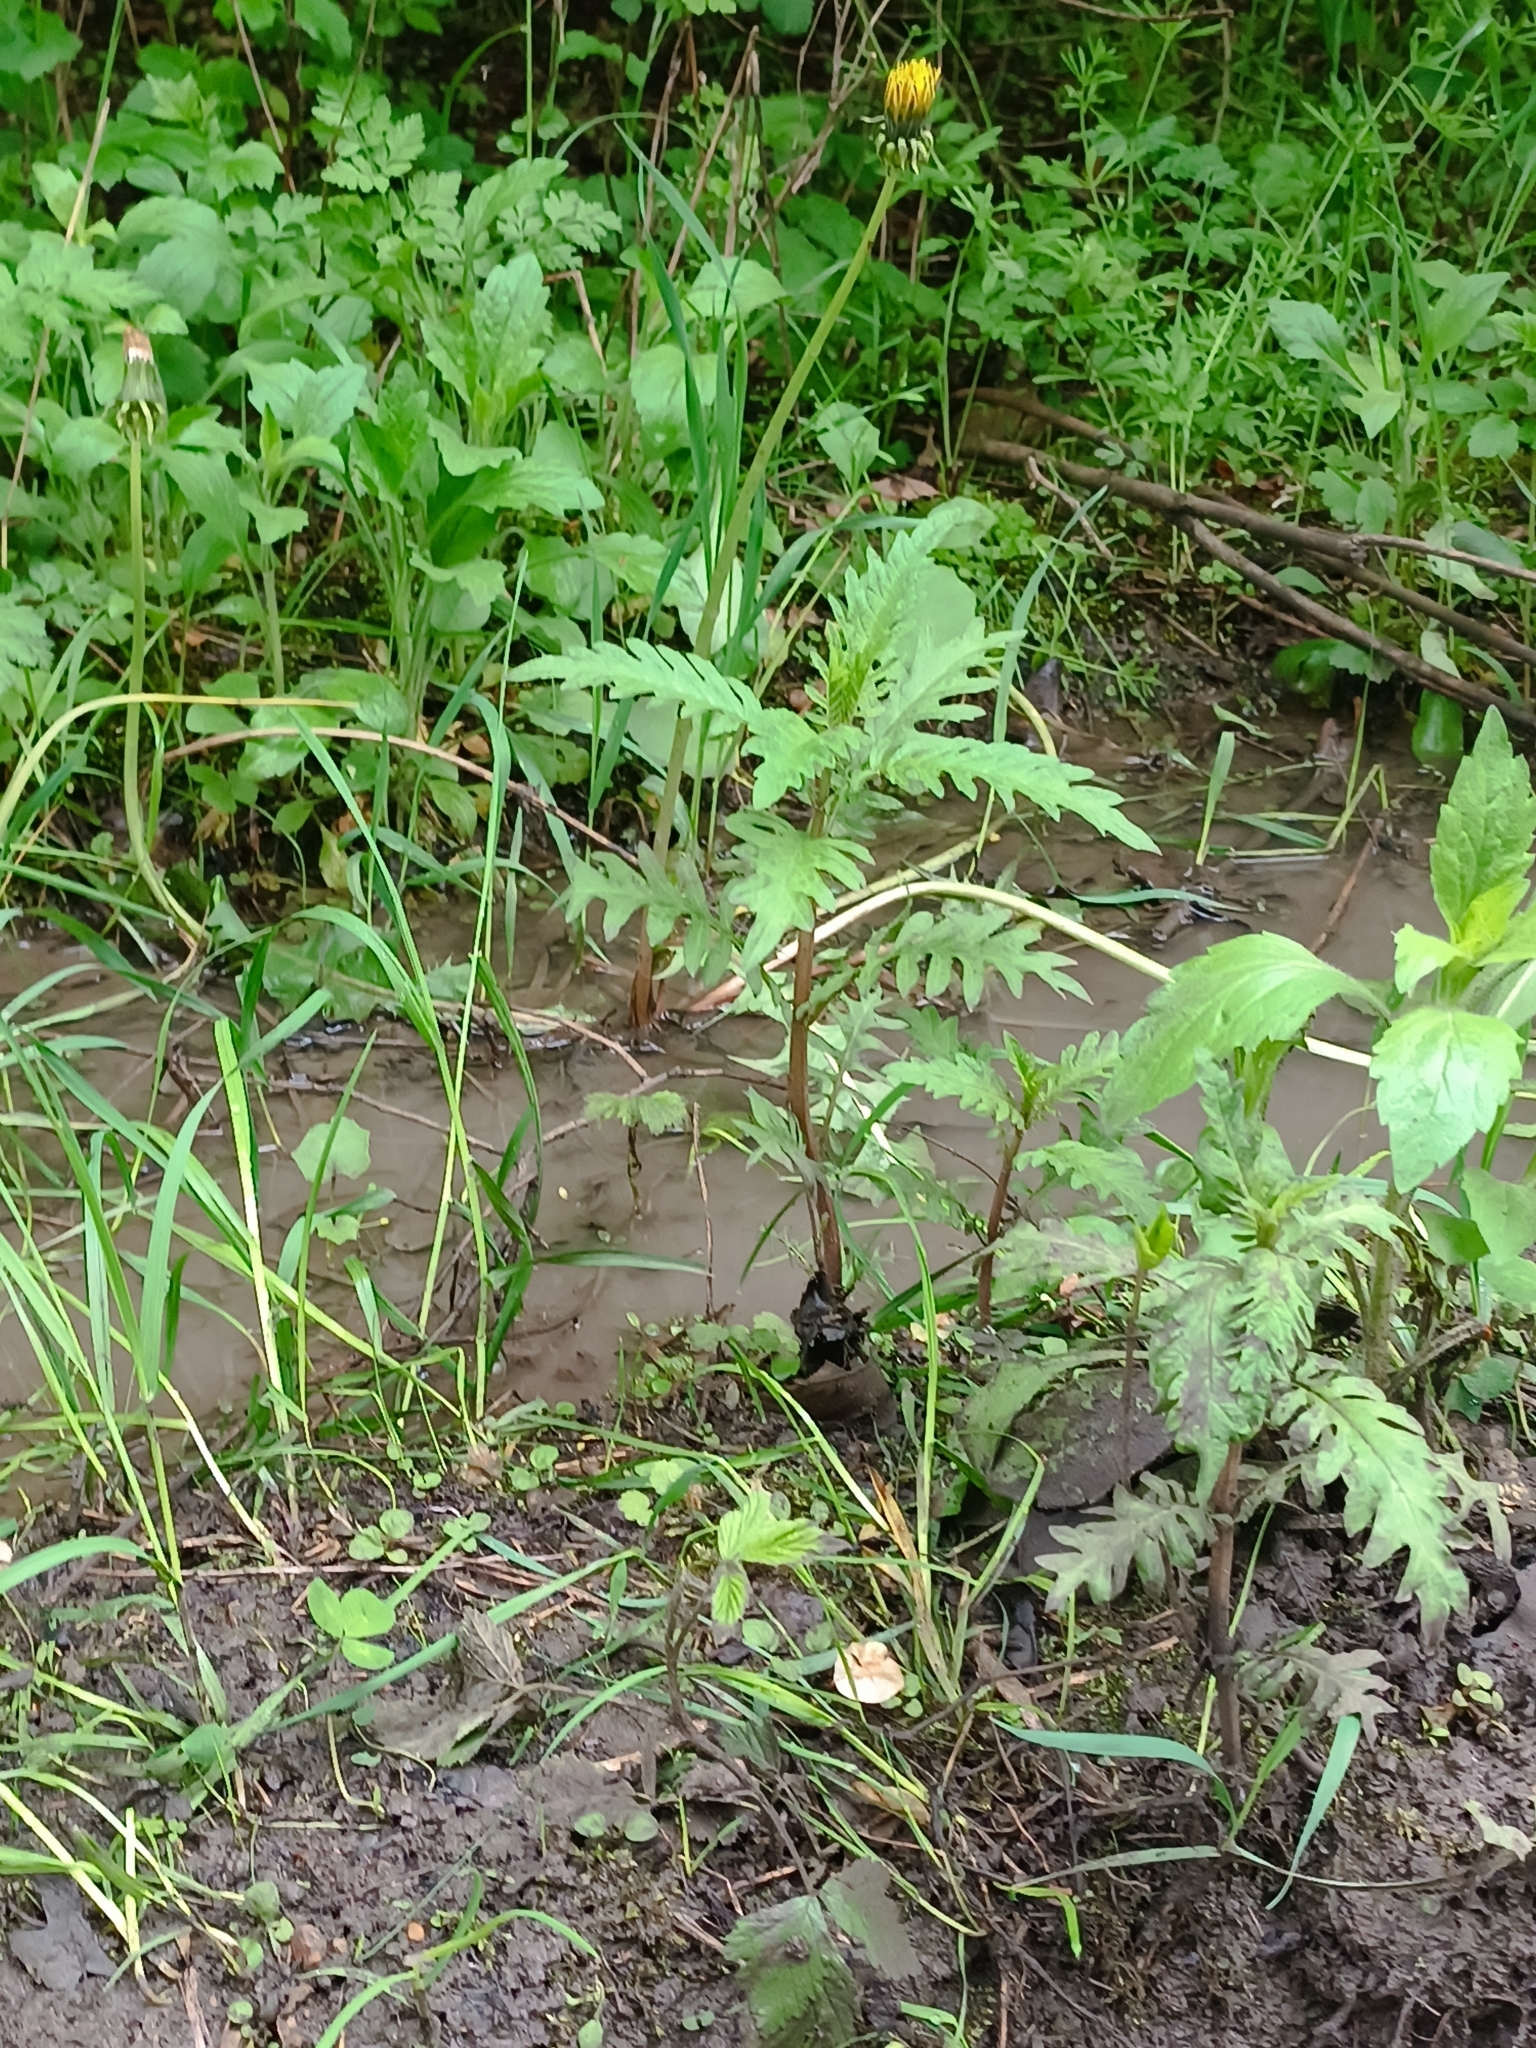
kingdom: Plantae
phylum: Tracheophyta
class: Magnoliopsida
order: Lamiales
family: Lamiaceae
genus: Lycopus
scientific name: Lycopus exaltatus
